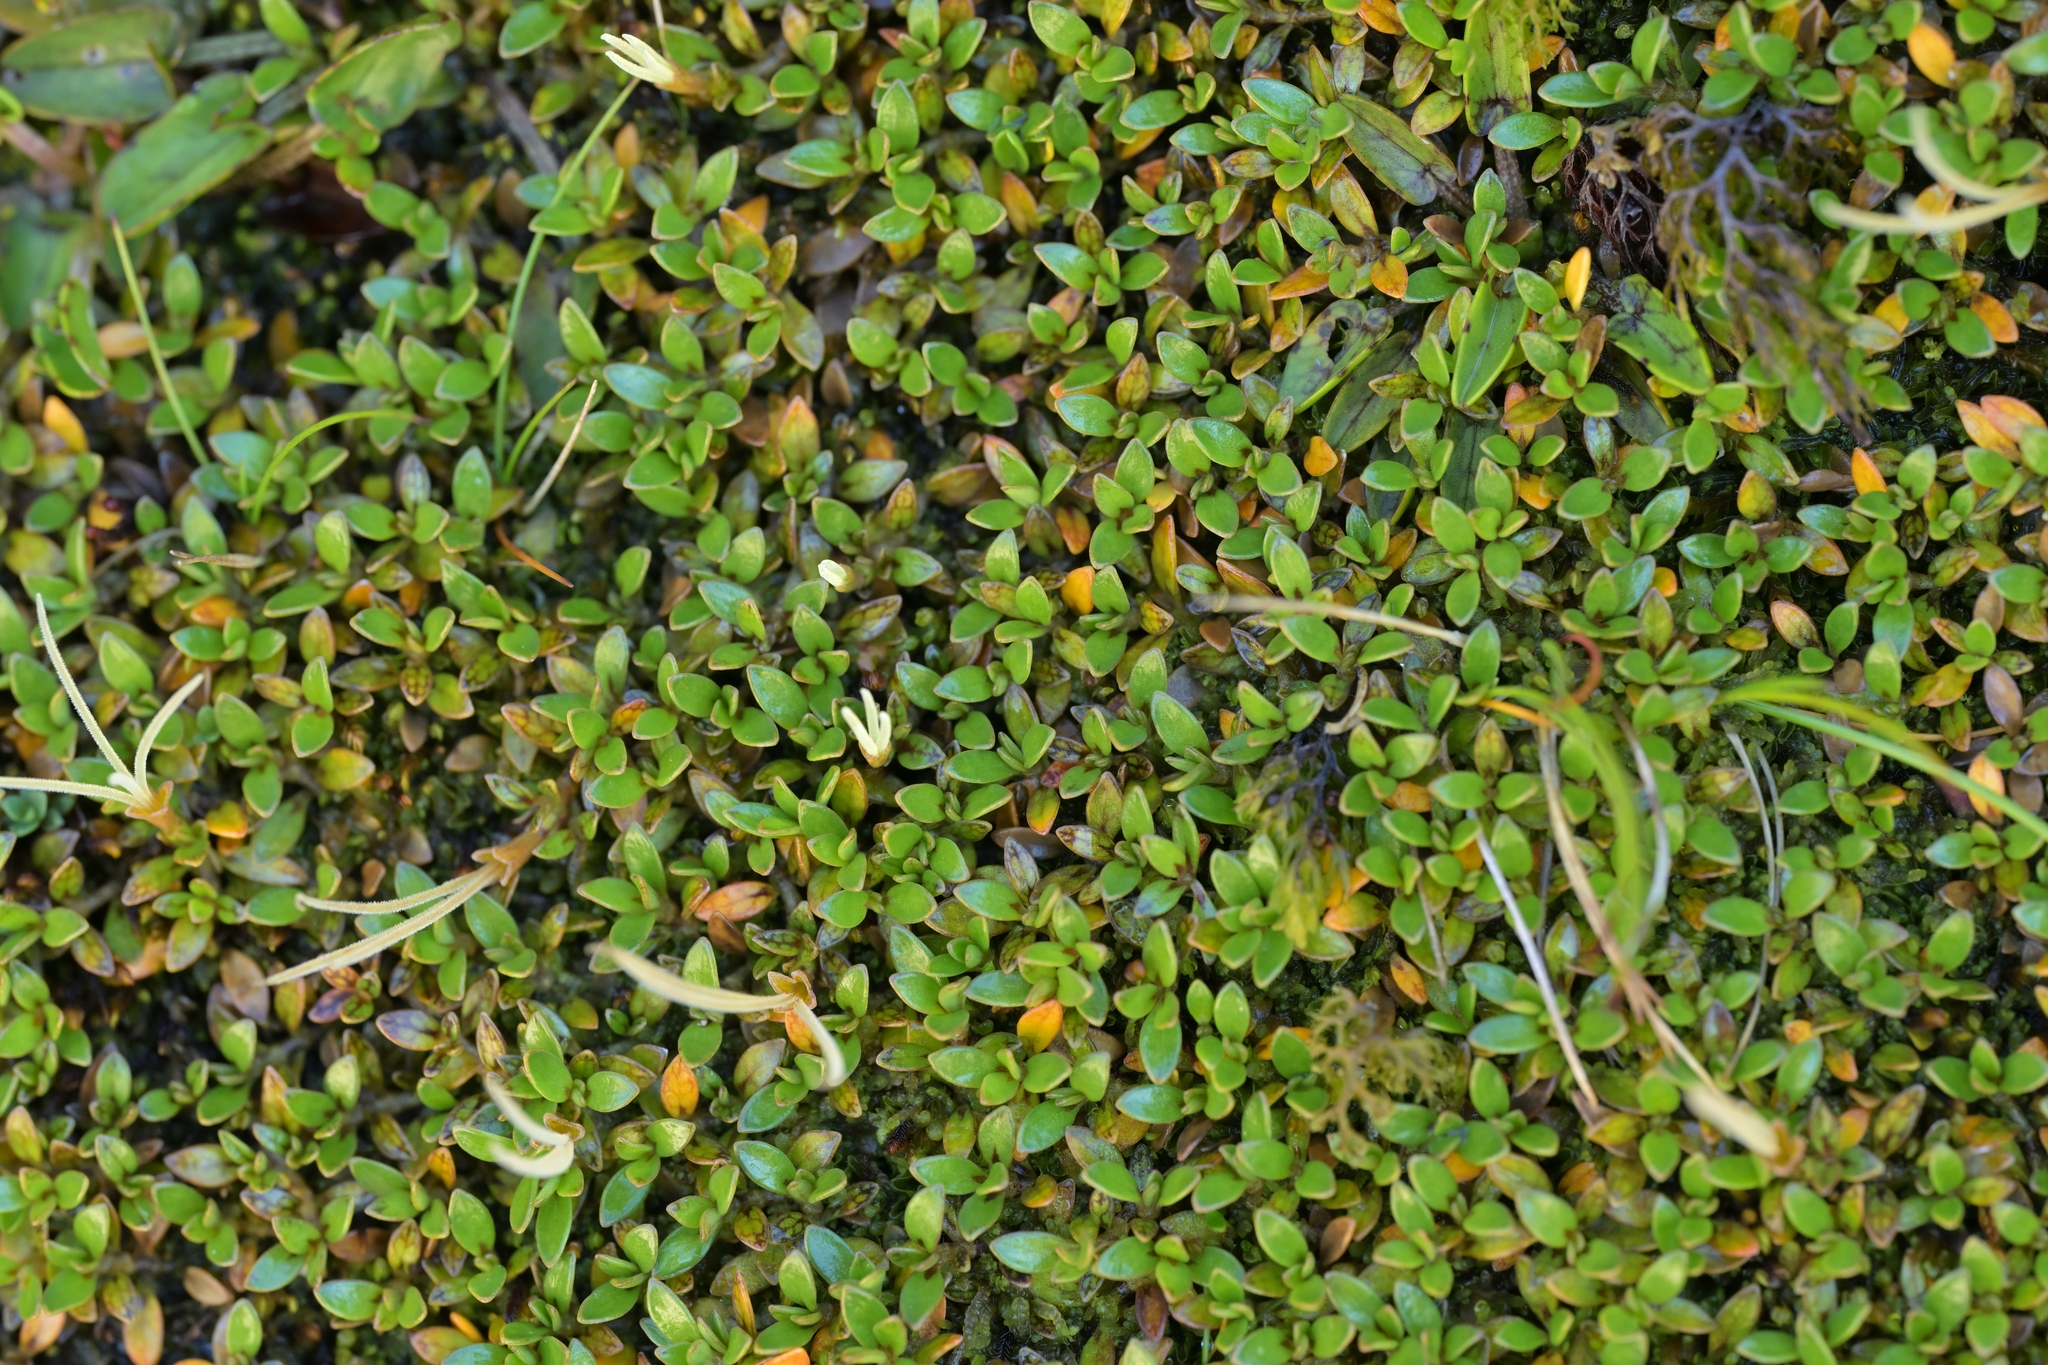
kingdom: Plantae
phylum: Tracheophyta
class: Magnoliopsida
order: Gentianales
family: Rubiaceae
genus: Coprosma
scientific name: Coprosma perpusilla
